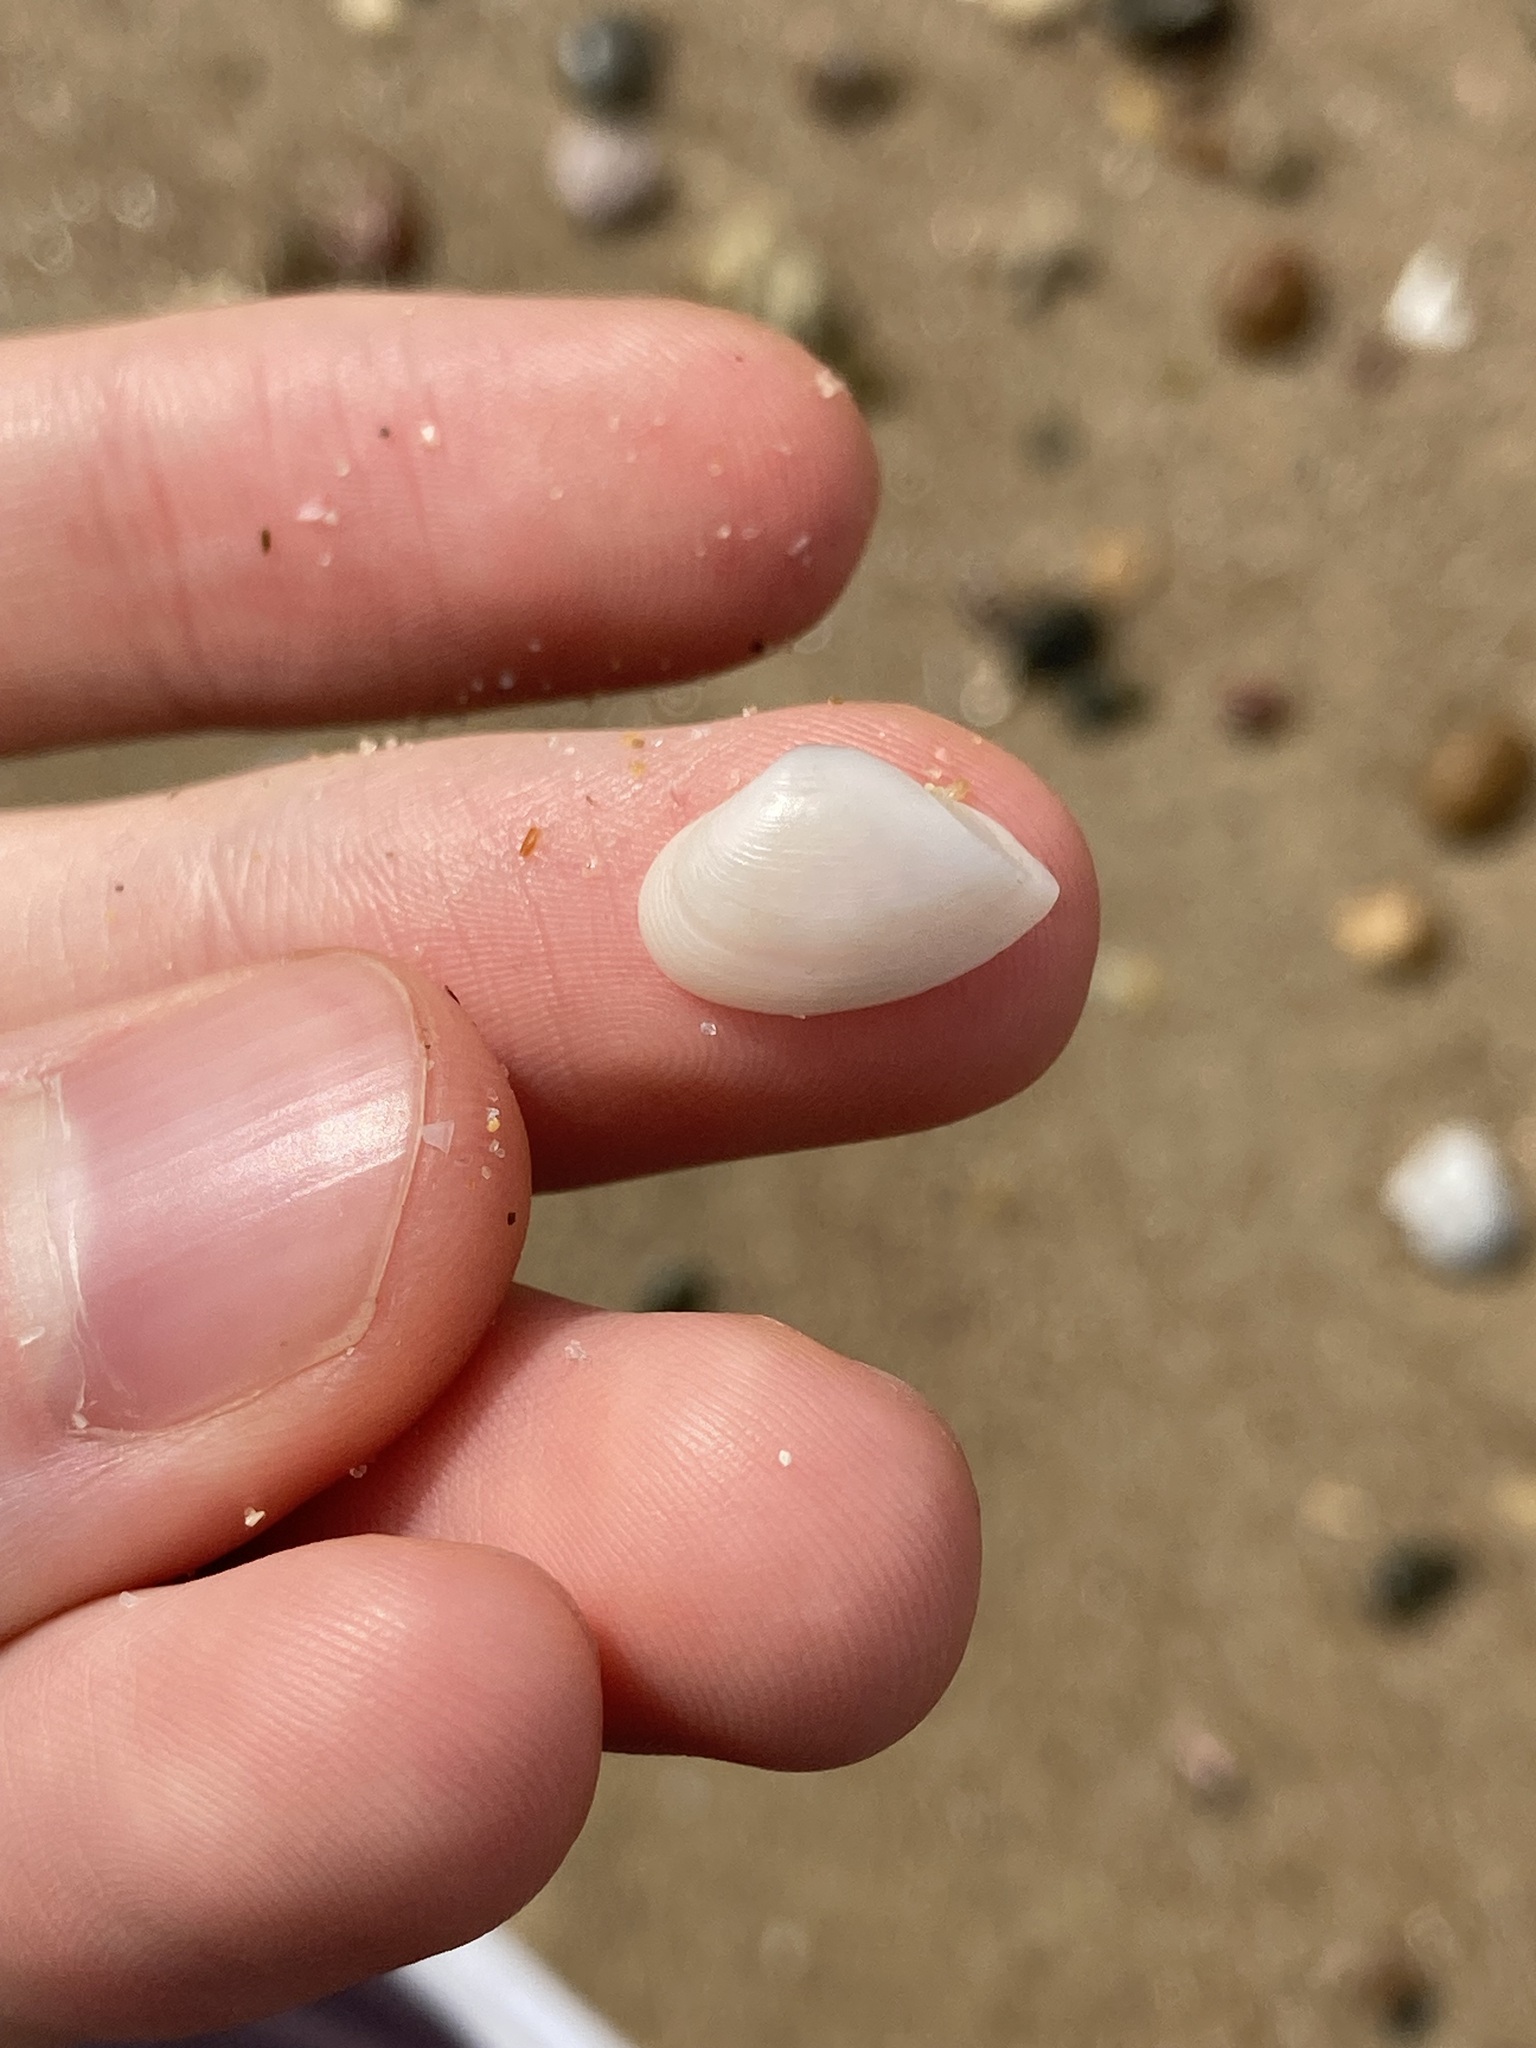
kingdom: Animalia
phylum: Mollusca
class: Bivalvia
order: Myida
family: Corbulidae
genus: Corbula
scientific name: Corbula smithiana
